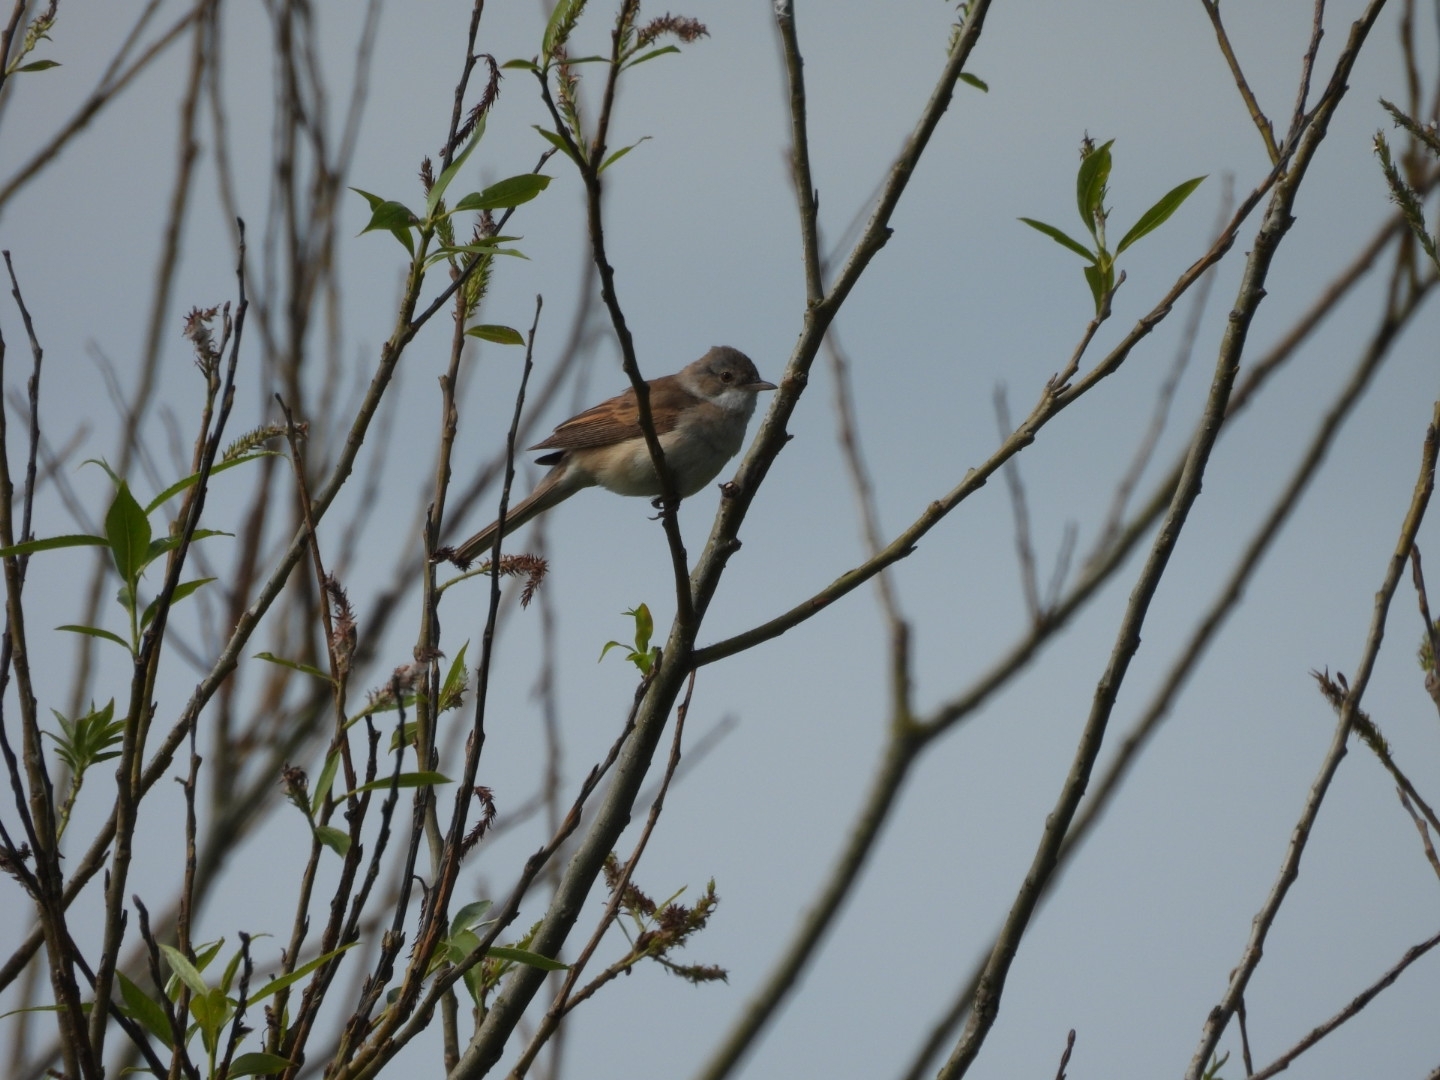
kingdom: Animalia
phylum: Chordata
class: Aves
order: Passeriformes
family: Sylviidae
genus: Sylvia
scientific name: Sylvia communis
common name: Common whitethroat
